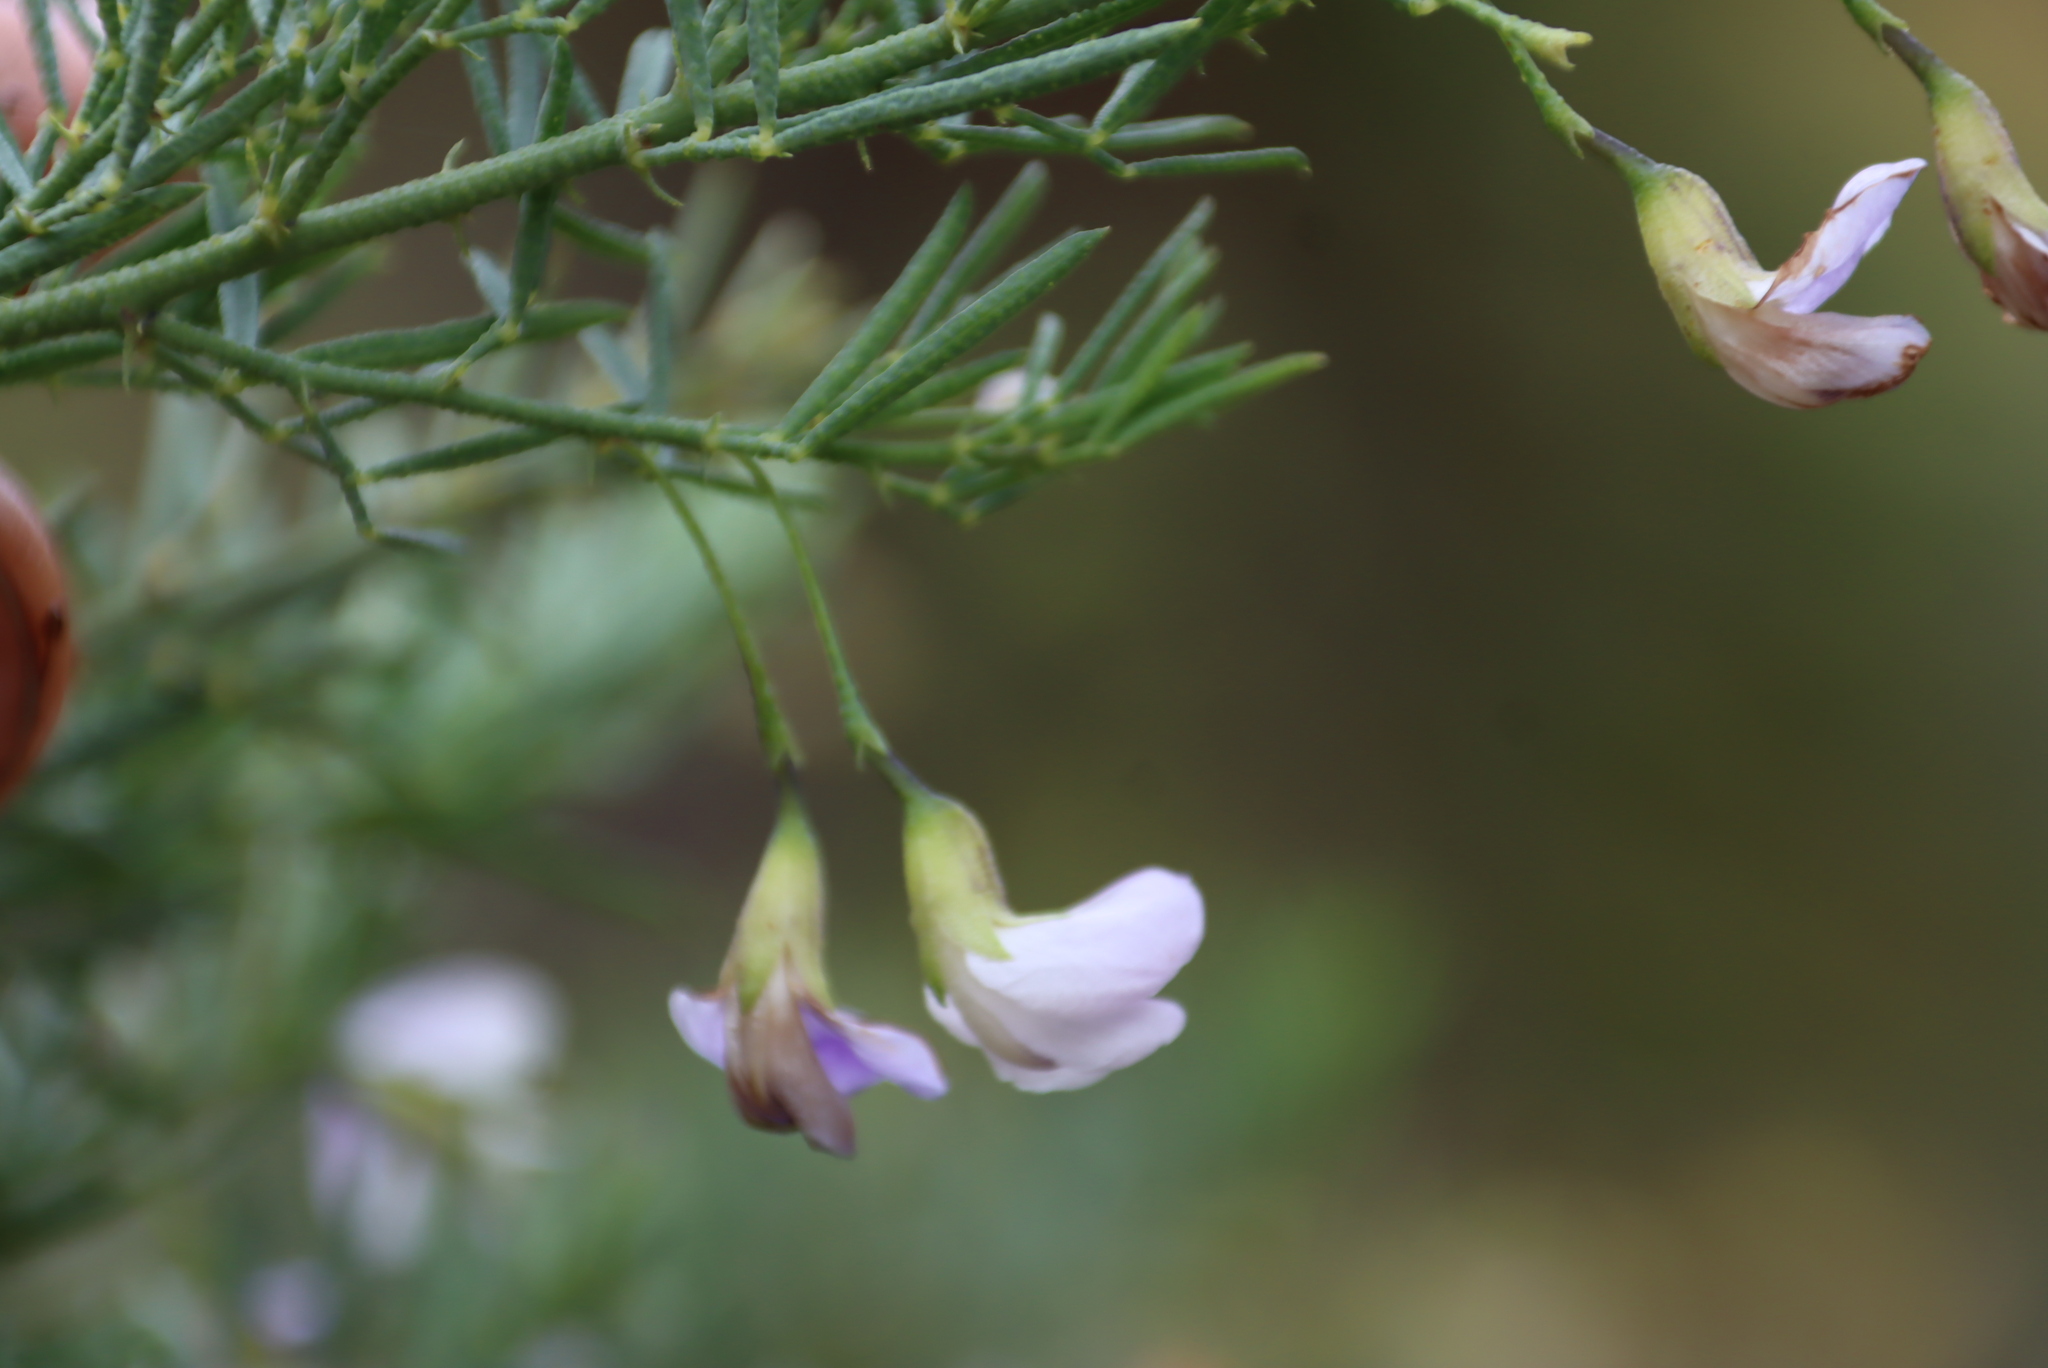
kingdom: Plantae
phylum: Tracheophyta
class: Magnoliopsida
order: Fabales
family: Fabaceae
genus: Psoralea
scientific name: Psoralea axillaris
